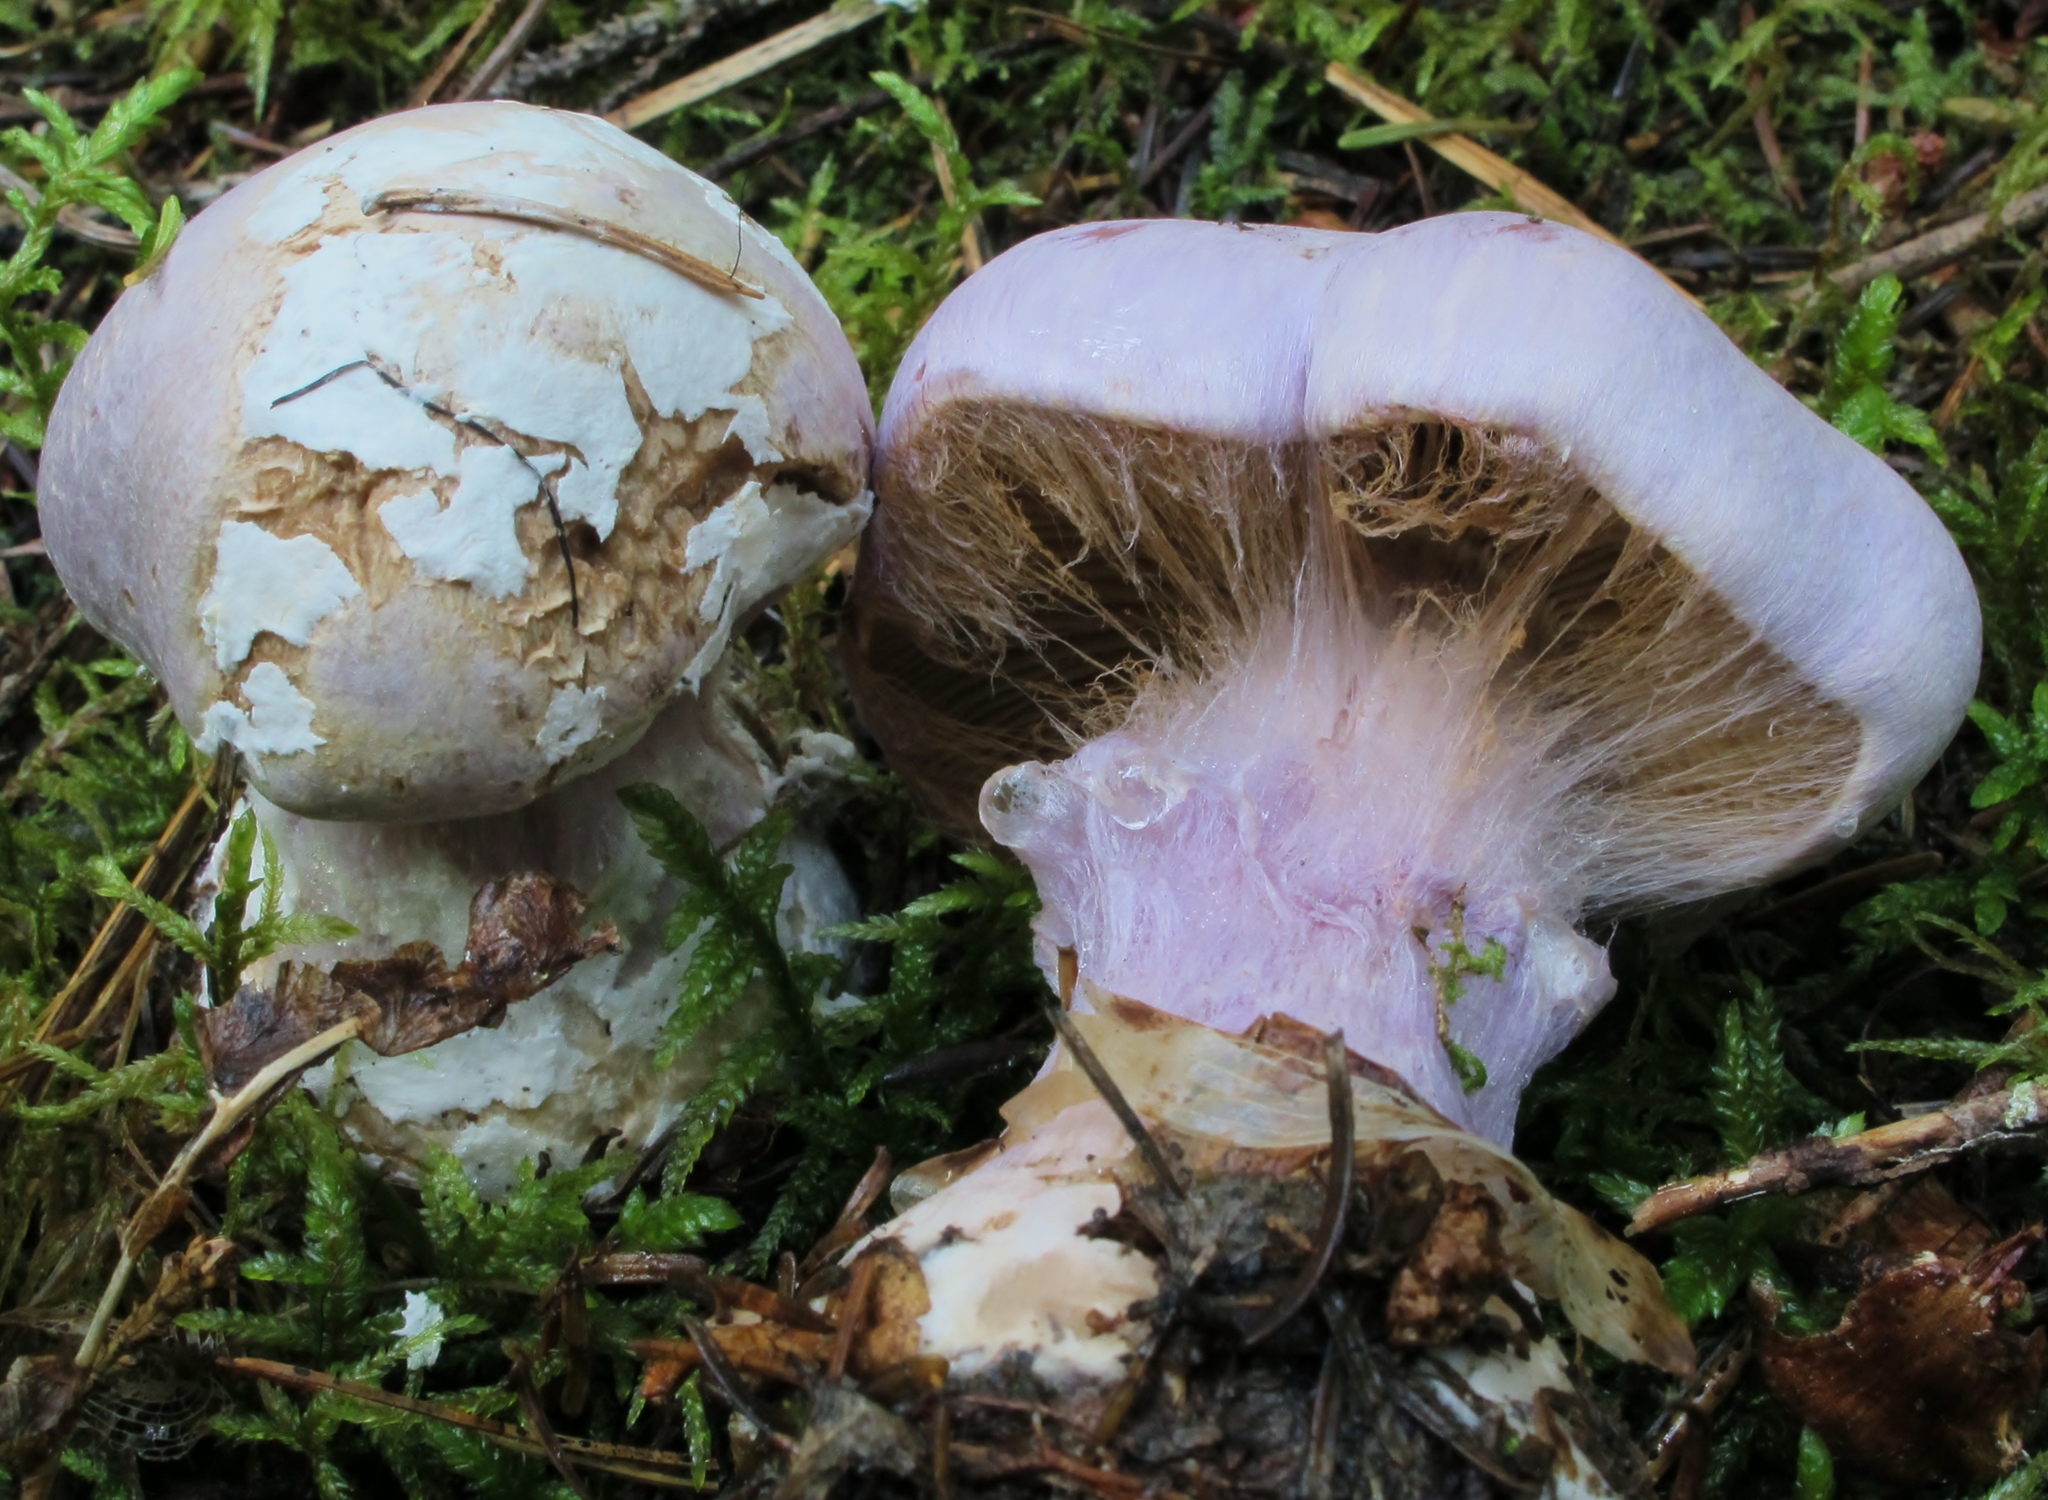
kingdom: Fungi
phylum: Basidiomycota
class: Agaricomycetes
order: Agaricales
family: Cortinariaceae
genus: Cortinarius
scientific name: Cortinarius traganus
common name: Gassy webcap
